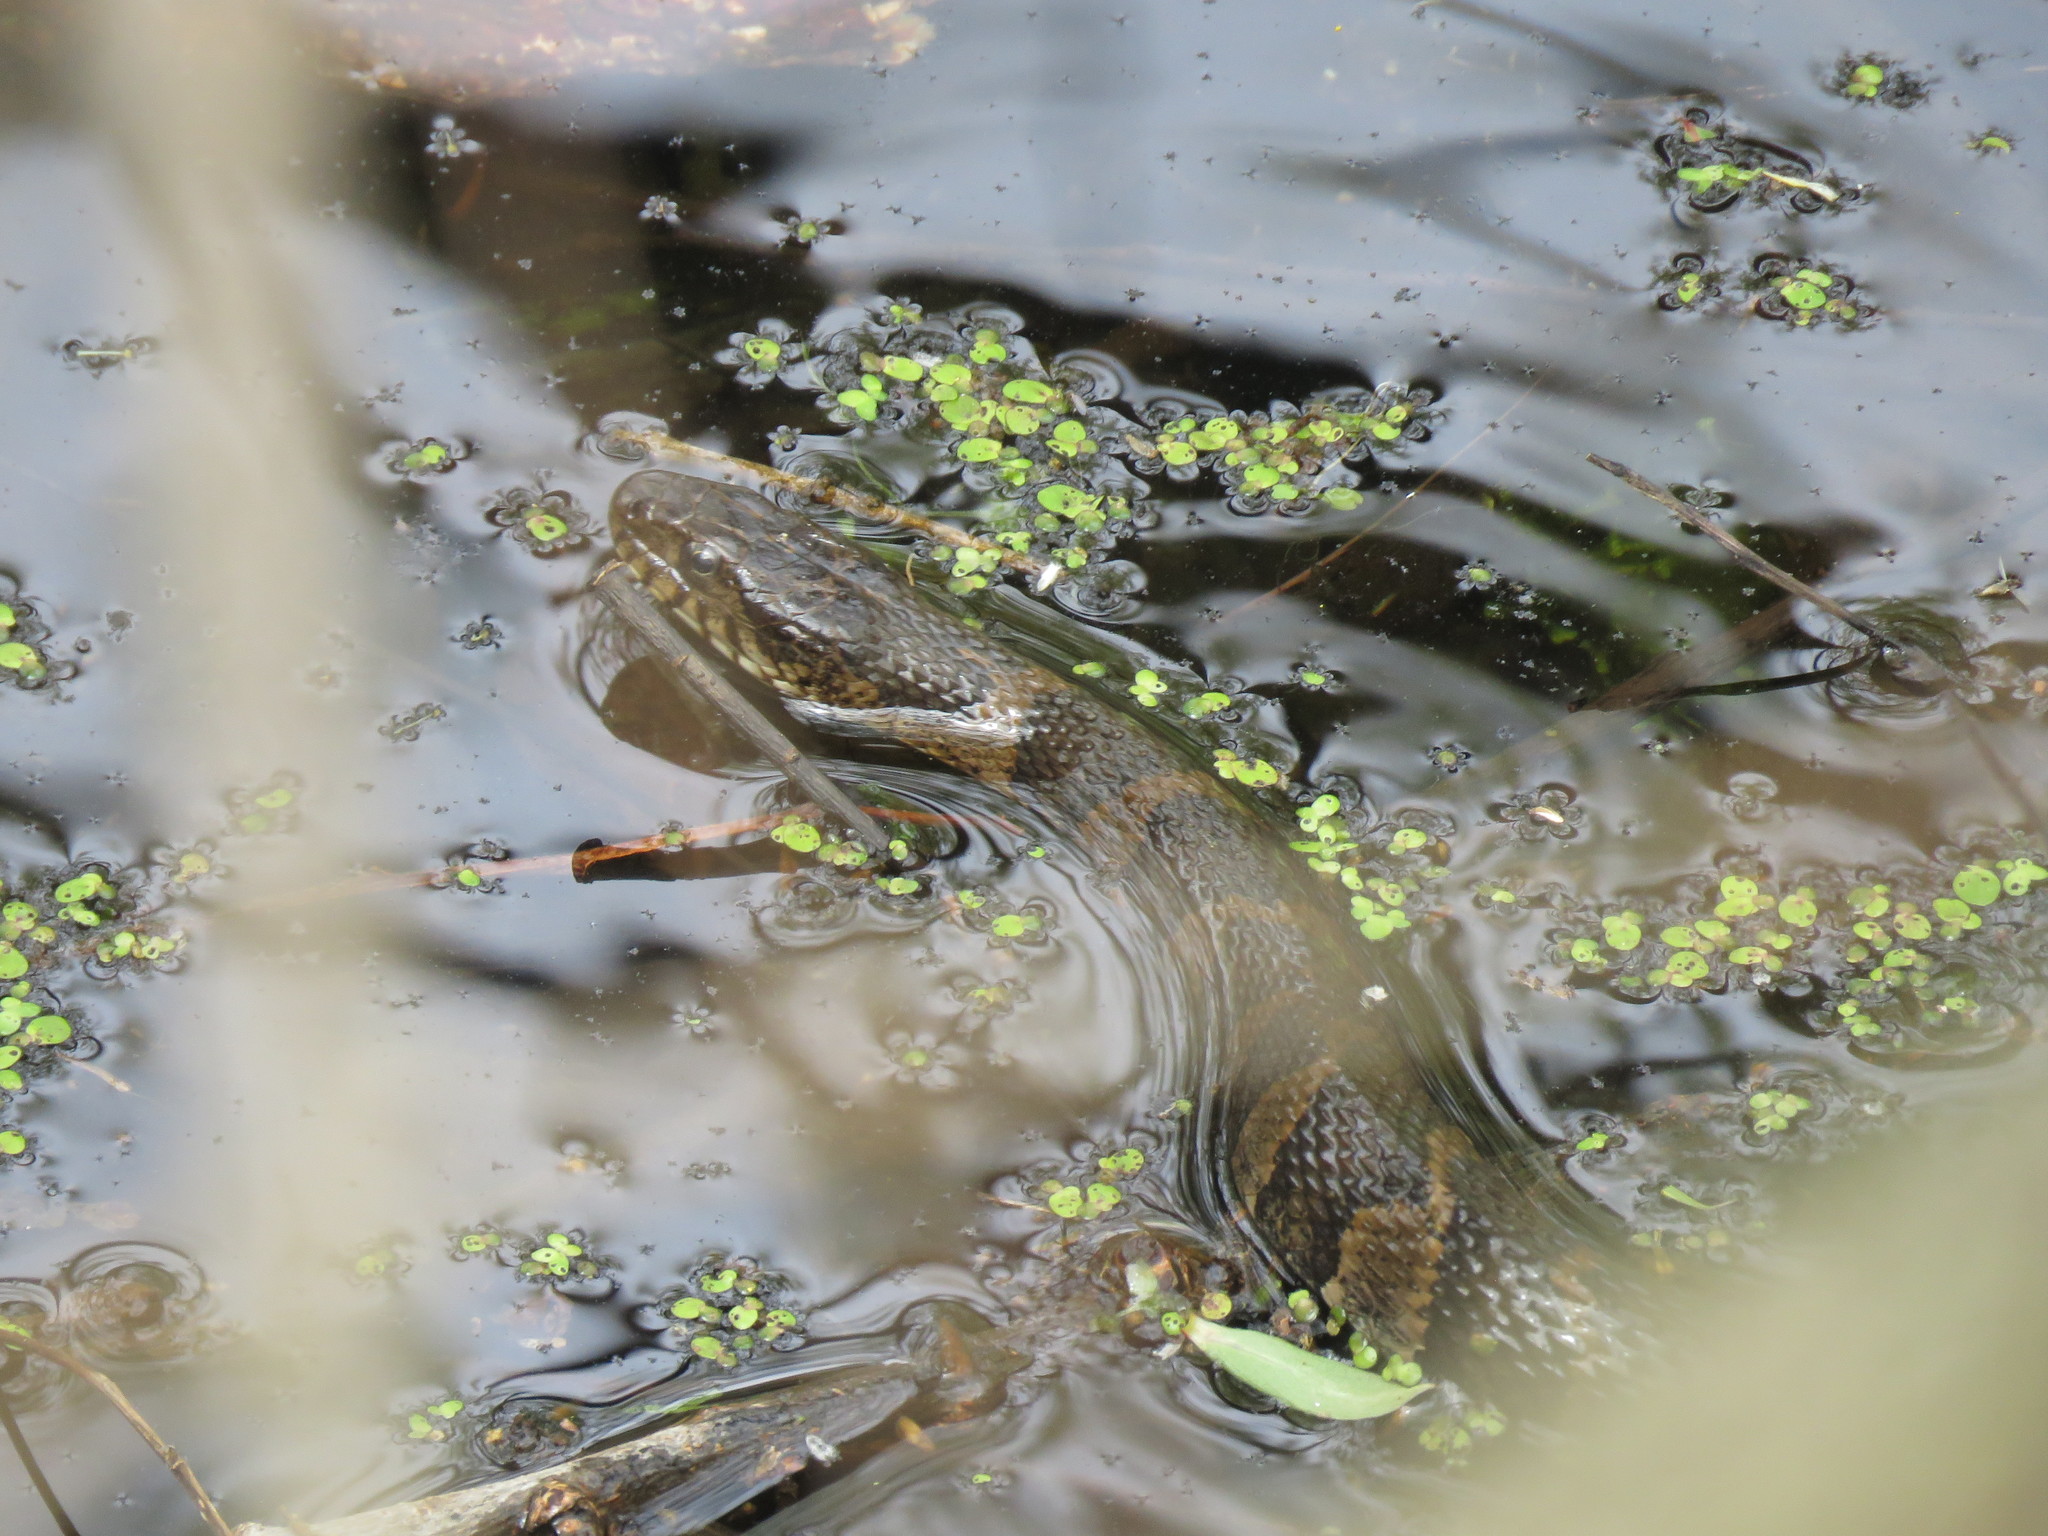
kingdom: Animalia
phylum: Chordata
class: Squamata
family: Colubridae
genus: Nerodia
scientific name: Nerodia sipedon
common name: Northern water snake
